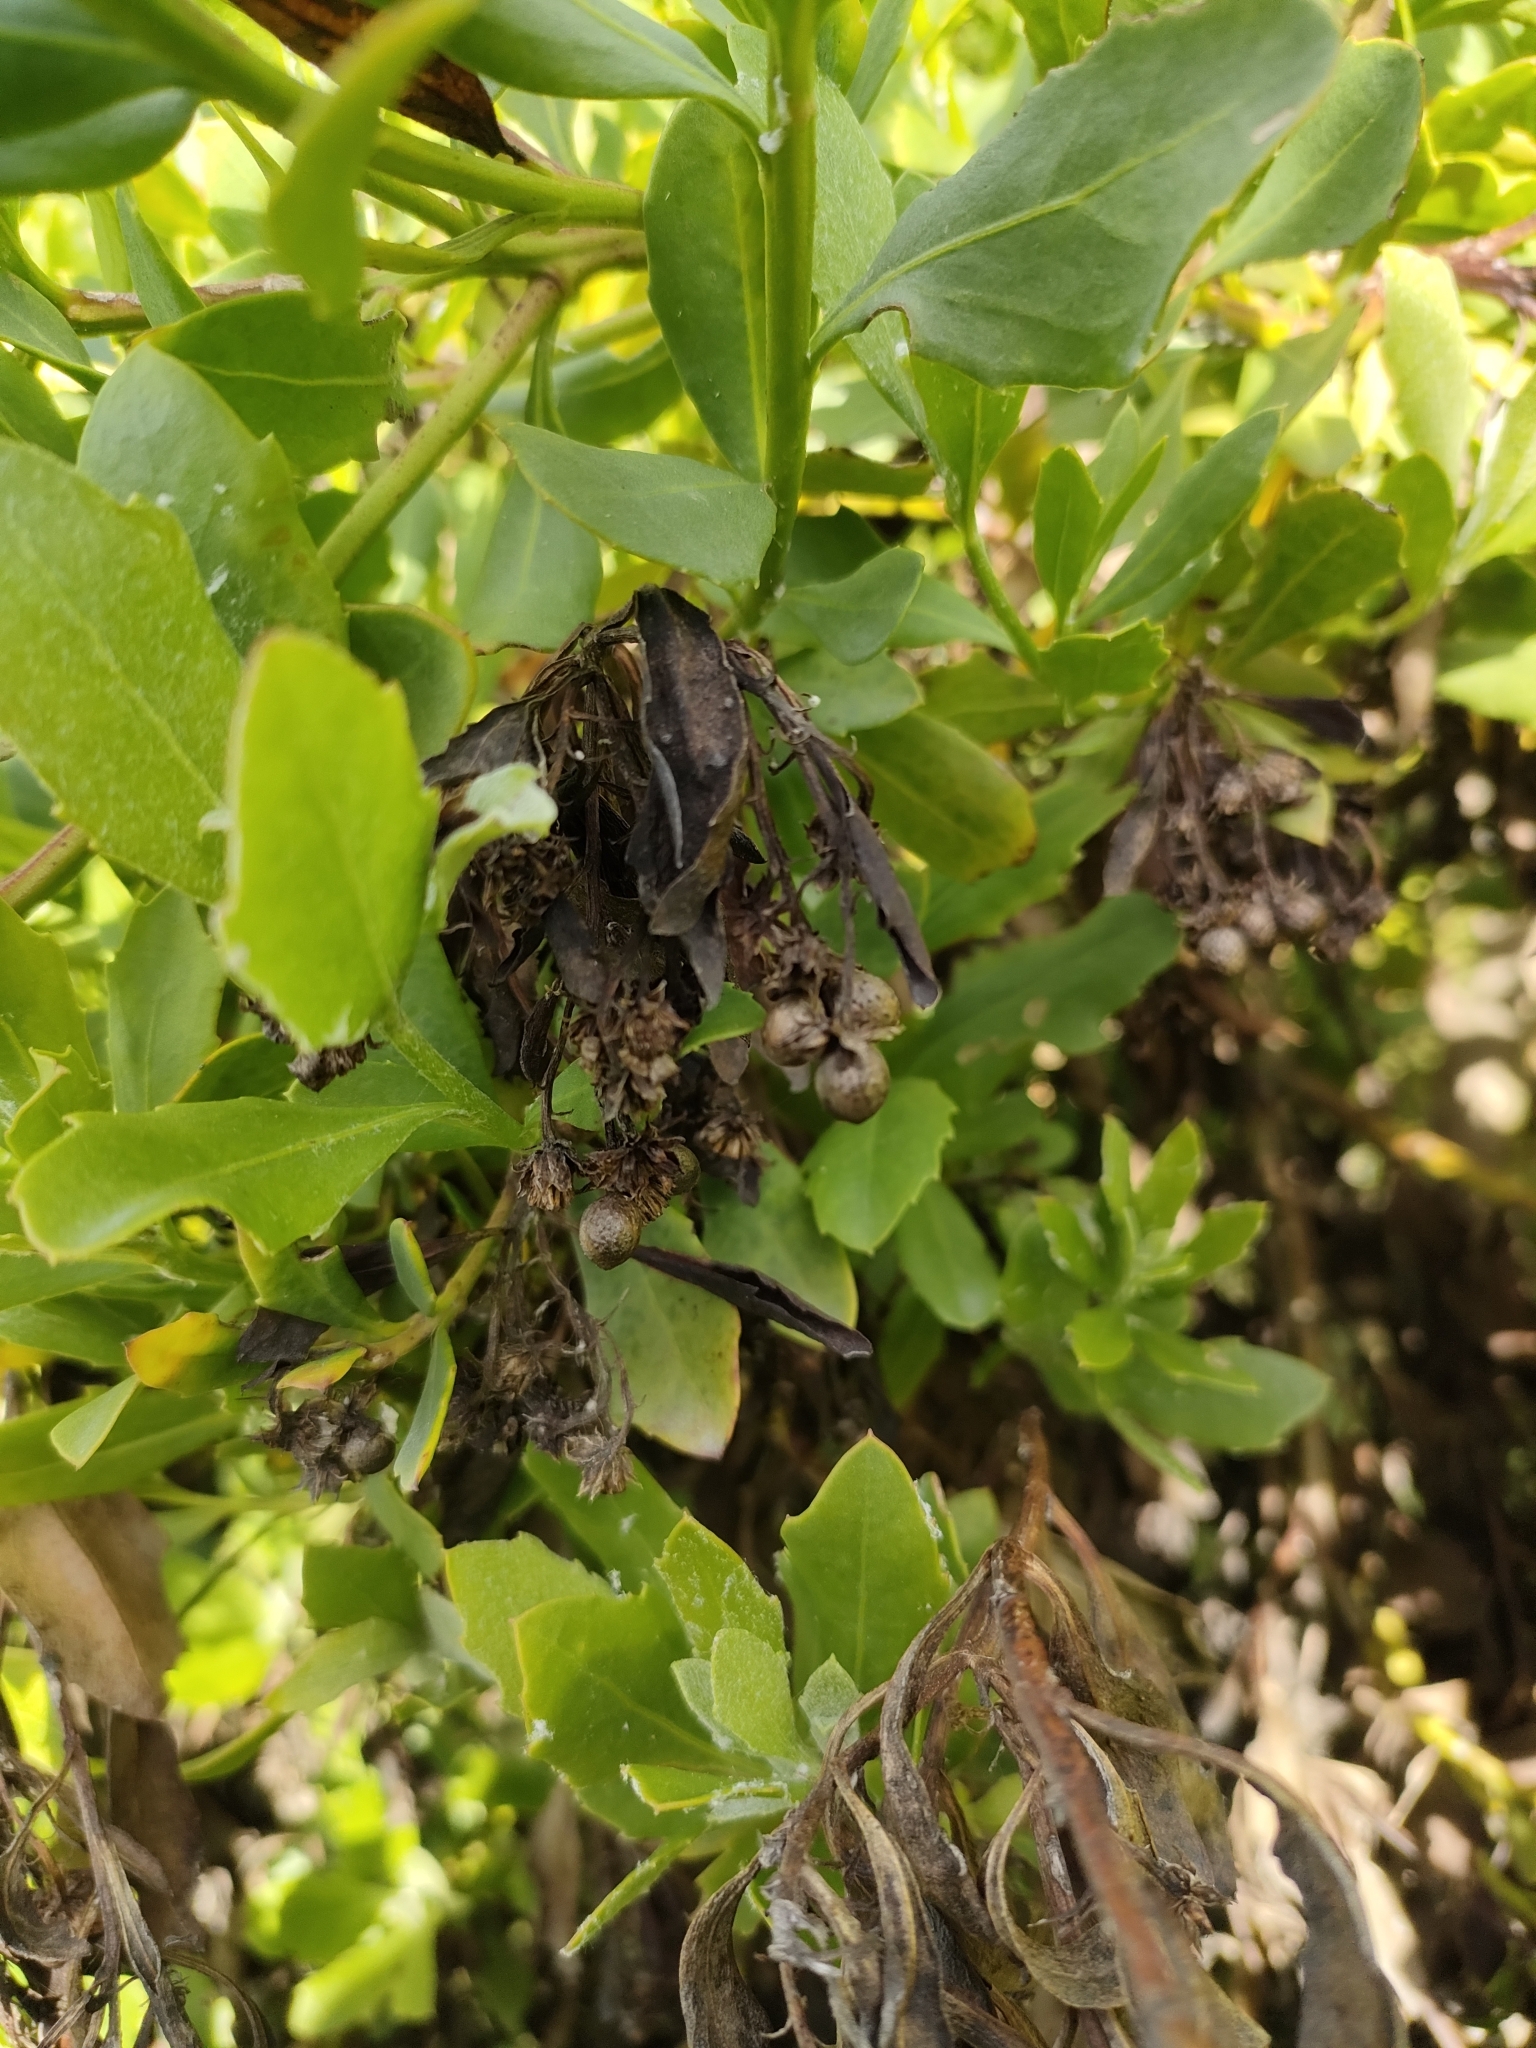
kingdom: Plantae
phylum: Tracheophyta
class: Magnoliopsida
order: Asterales
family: Asteraceae
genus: Osteospermum
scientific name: Osteospermum moniliferum
